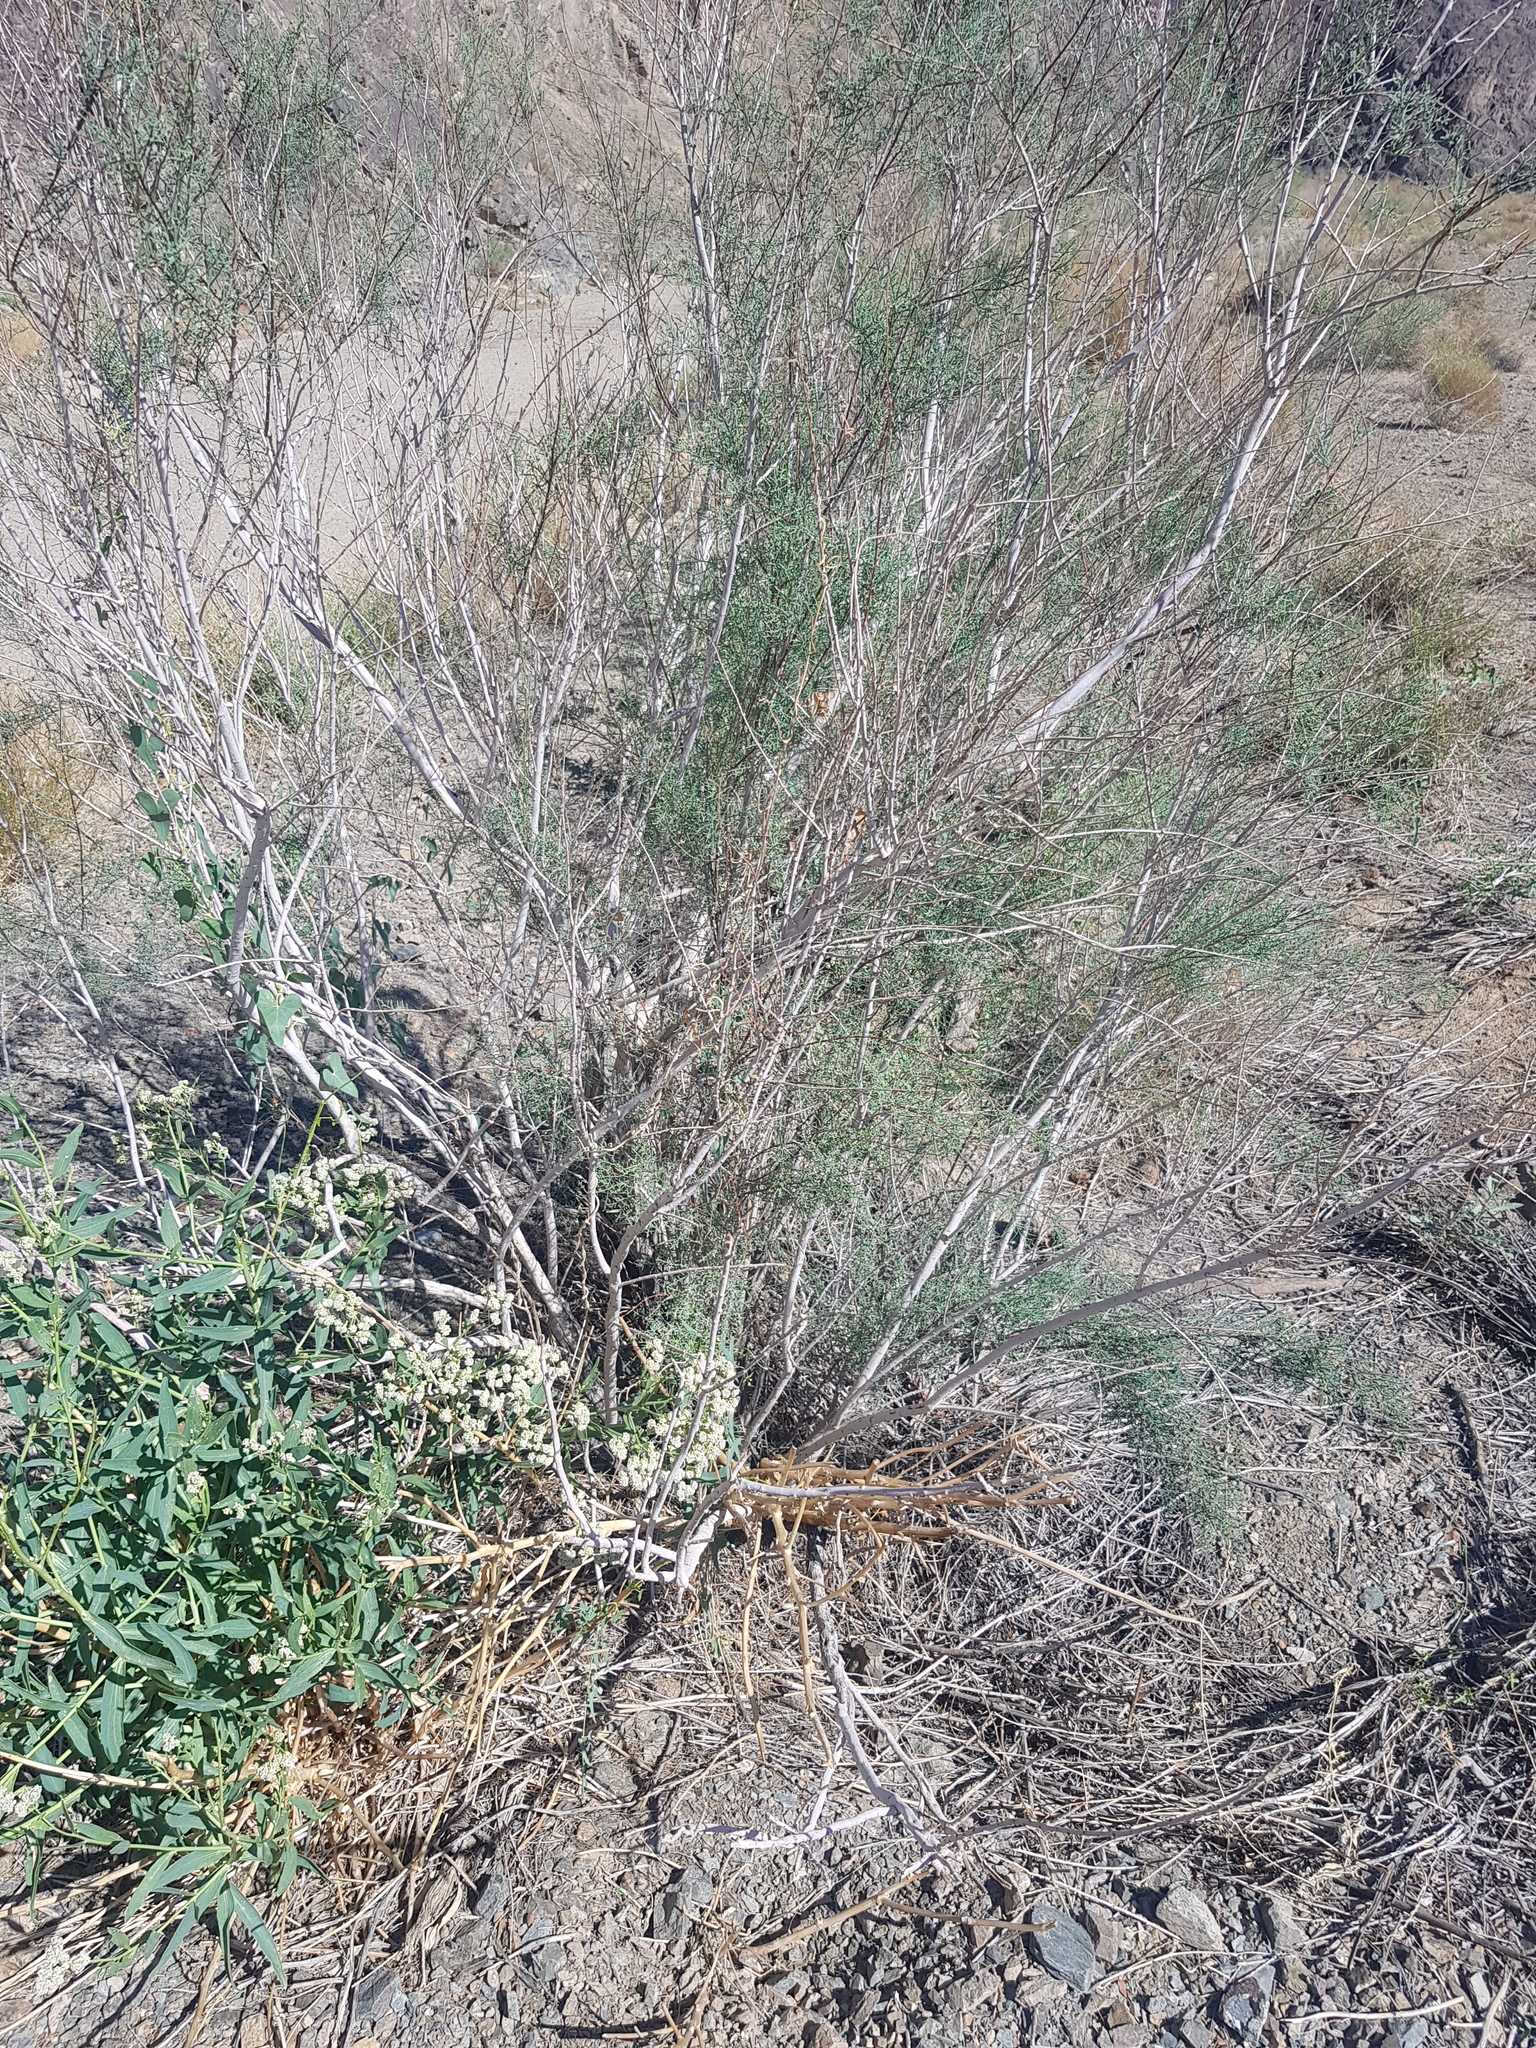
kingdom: Plantae
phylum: Tracheophyta
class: Magnoliopsida
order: Caryophyllales
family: Tamaricaceae
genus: Tamarix
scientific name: Tamarix ramosissima
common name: Pink tamarisk
